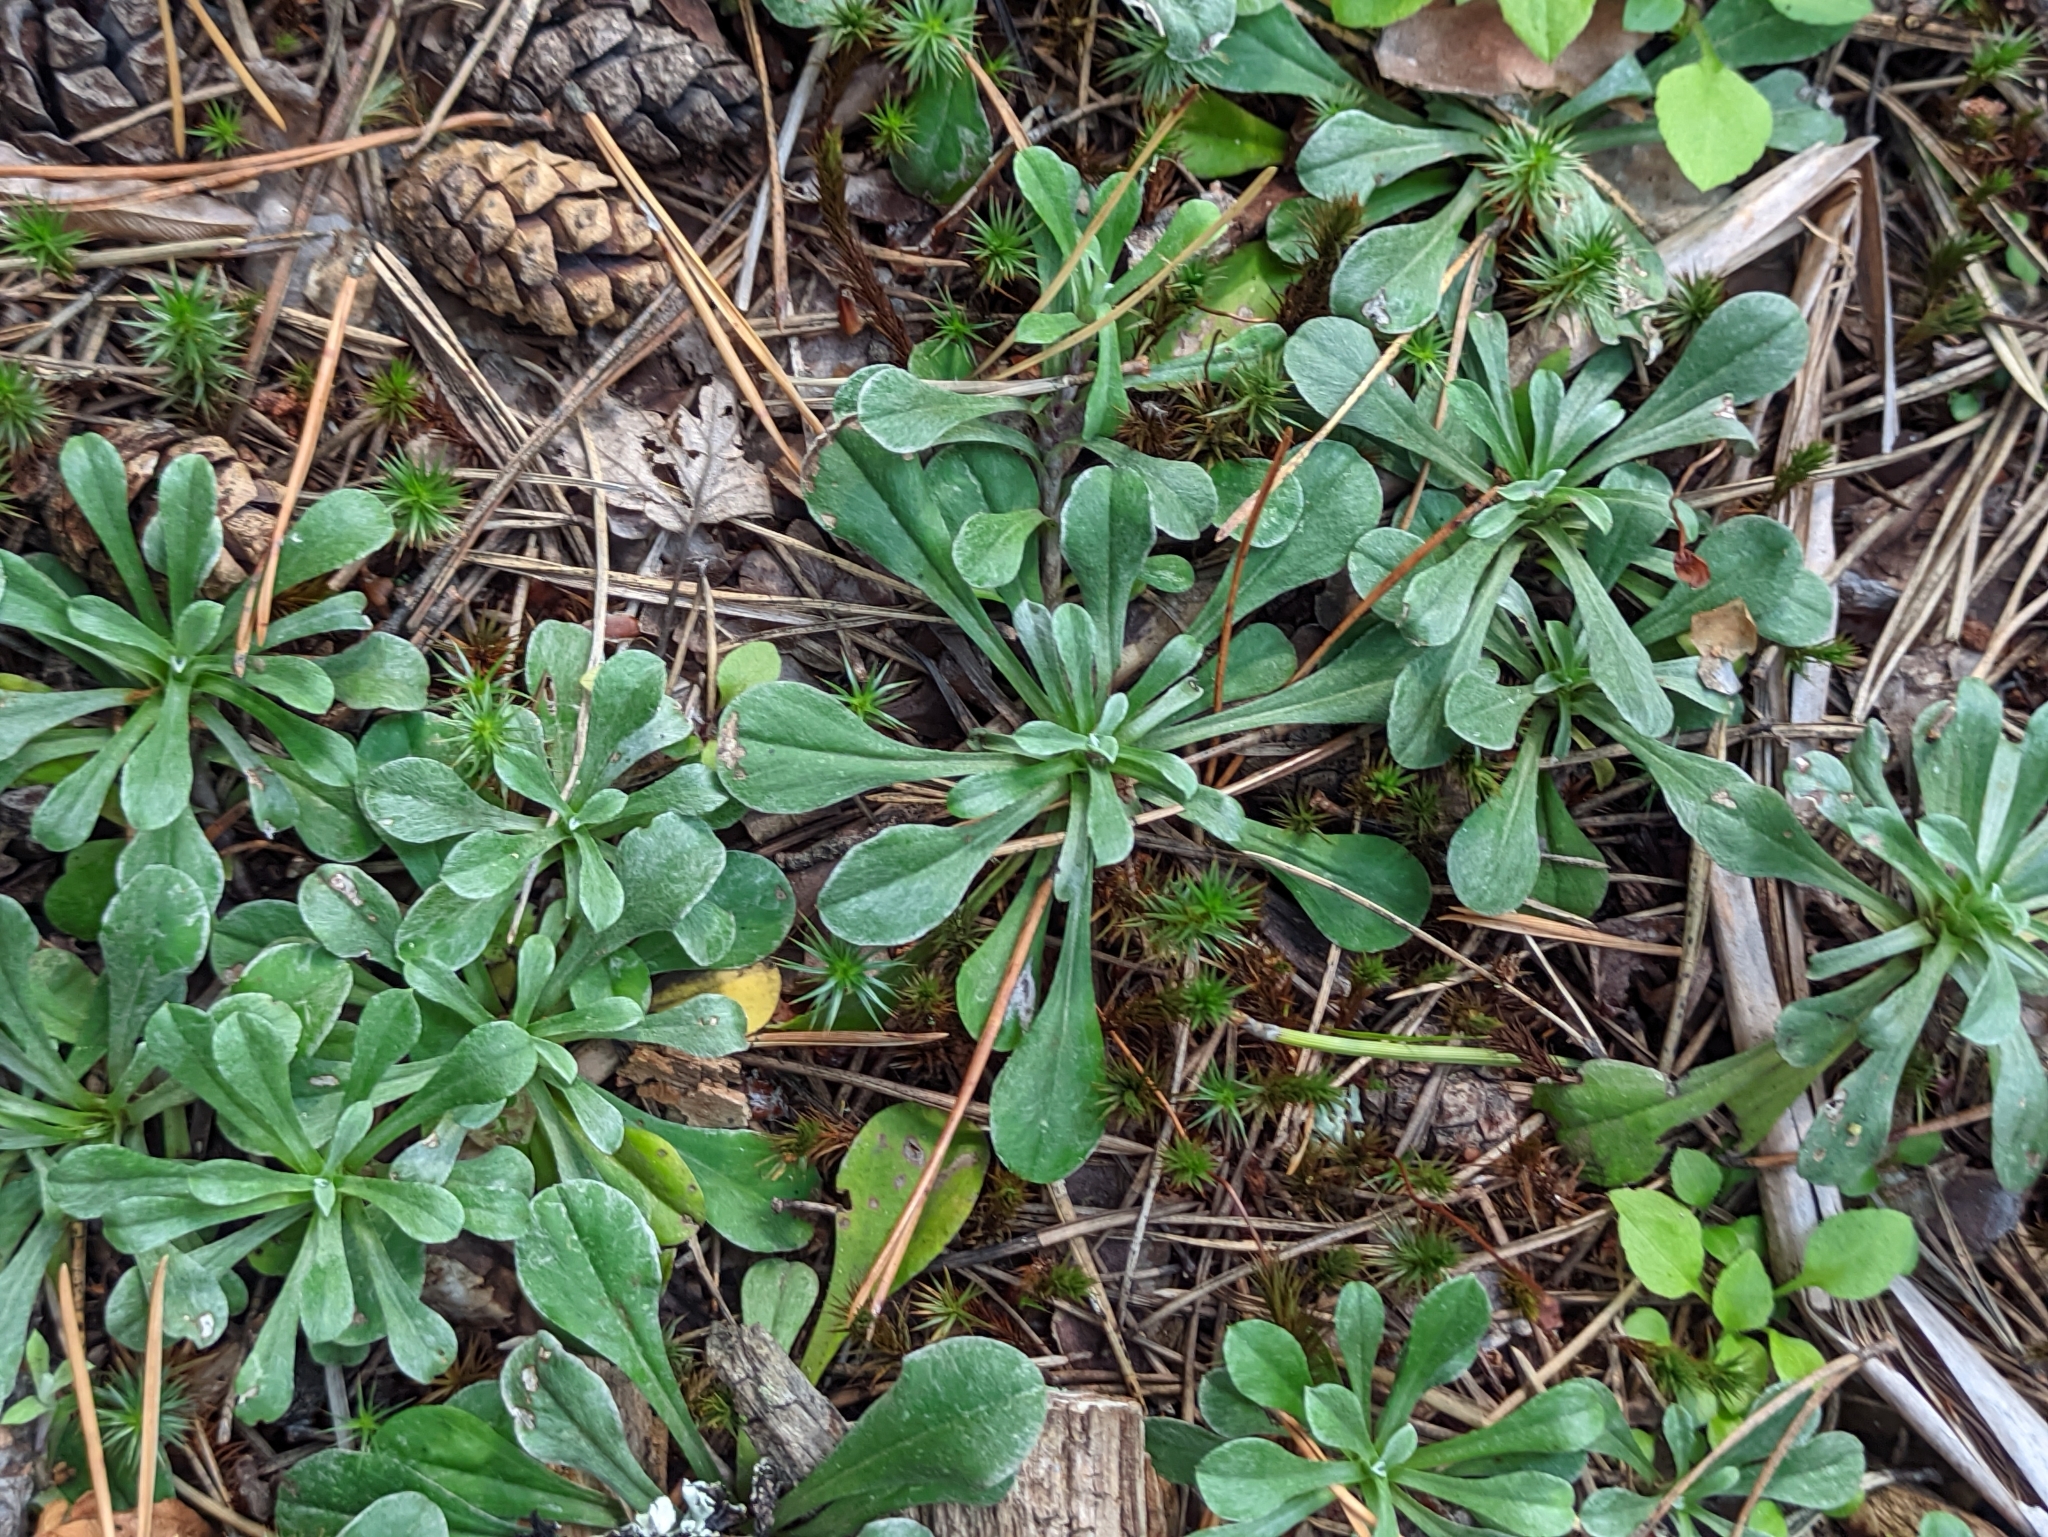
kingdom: Plantae
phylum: Tracheophyta
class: Magnoliopsida
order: Asterales
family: Asteraceae
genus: Antennaria
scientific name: Antennaria dioica
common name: Mountain everlasting
